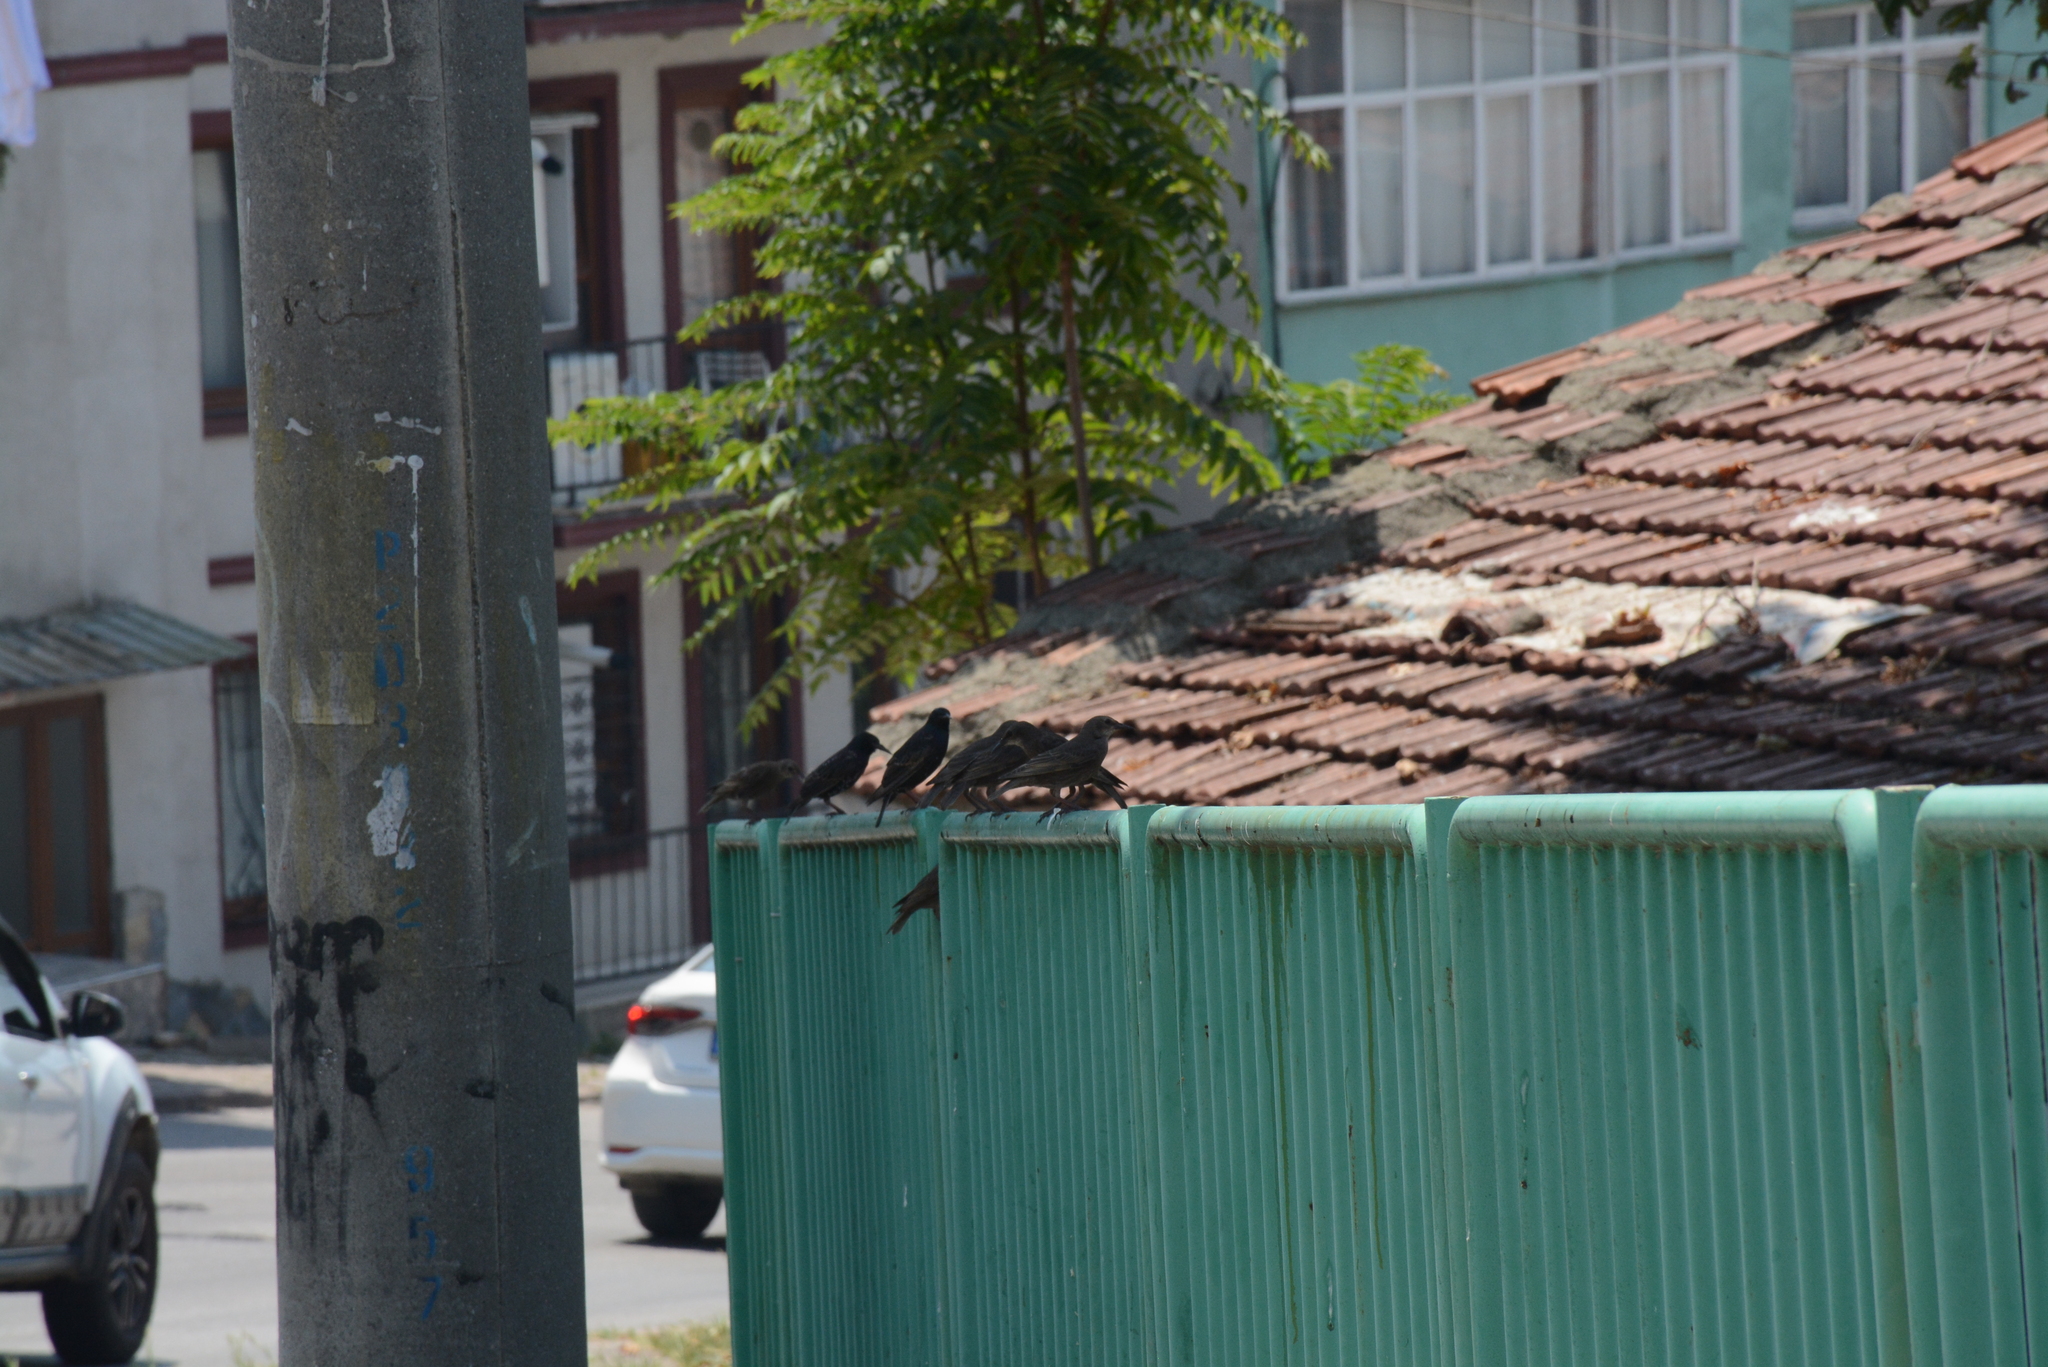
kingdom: Animalia
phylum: Chordata
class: Aves
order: Passeriformes
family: Sturnidae
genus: Sturnus
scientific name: Sturnus vulgaris
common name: Common starling
